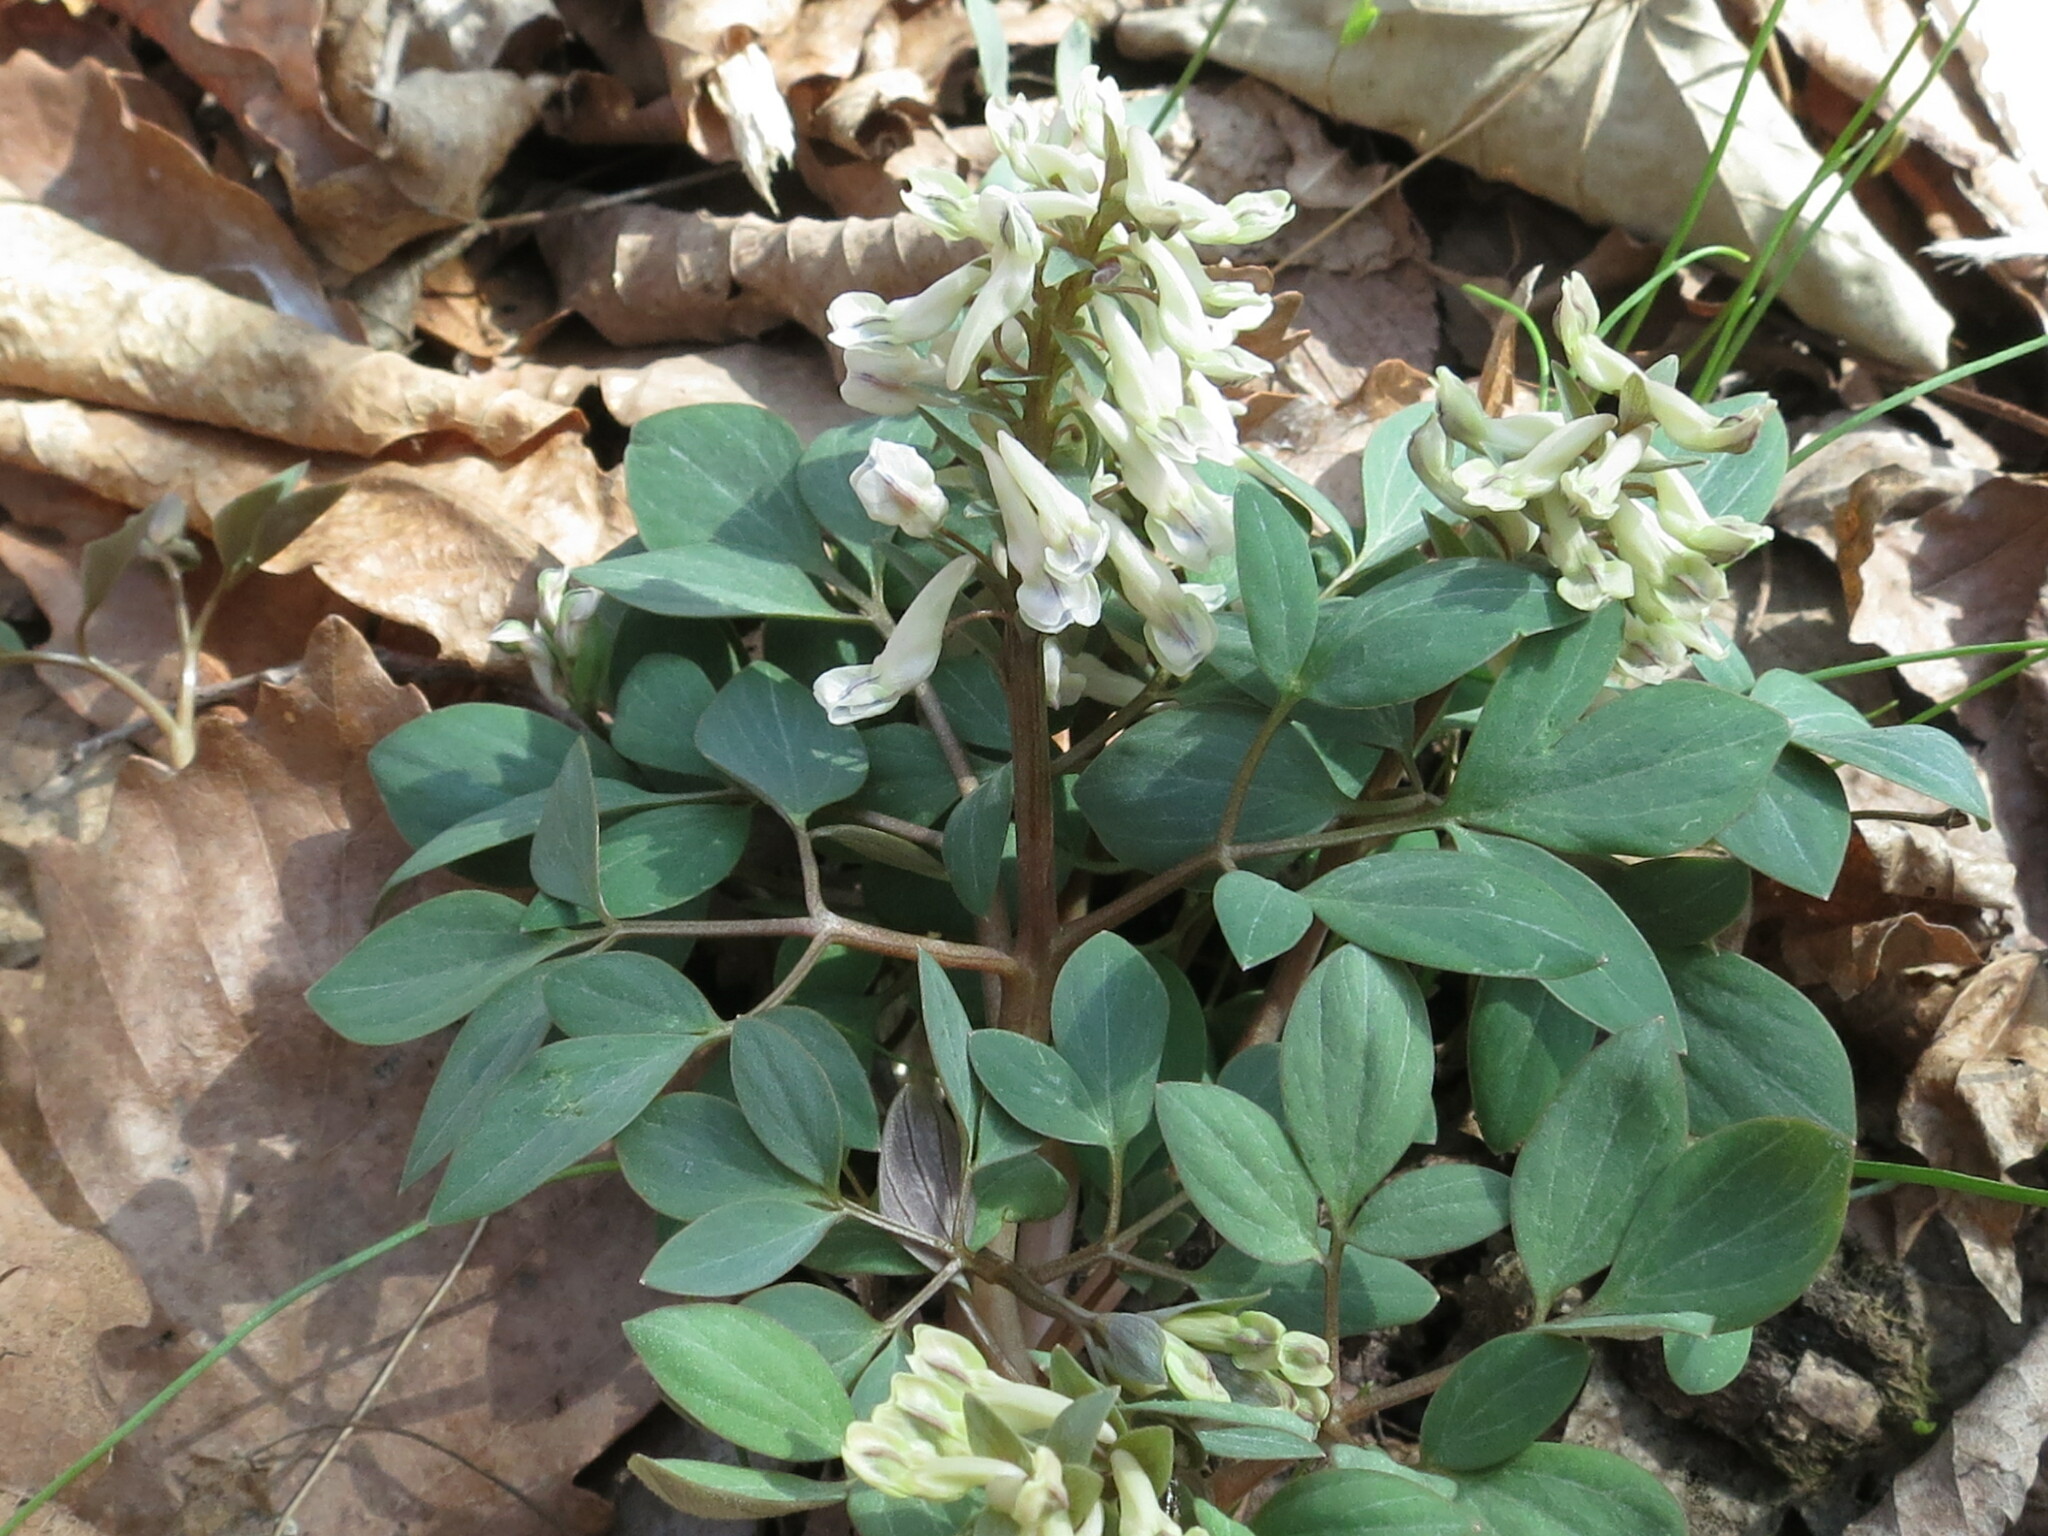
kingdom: Plantae
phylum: Tracheophyta
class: Magnoliopsida
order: Ranunculales
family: Papaveraceae
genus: Corydalis
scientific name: Corydalis repens
